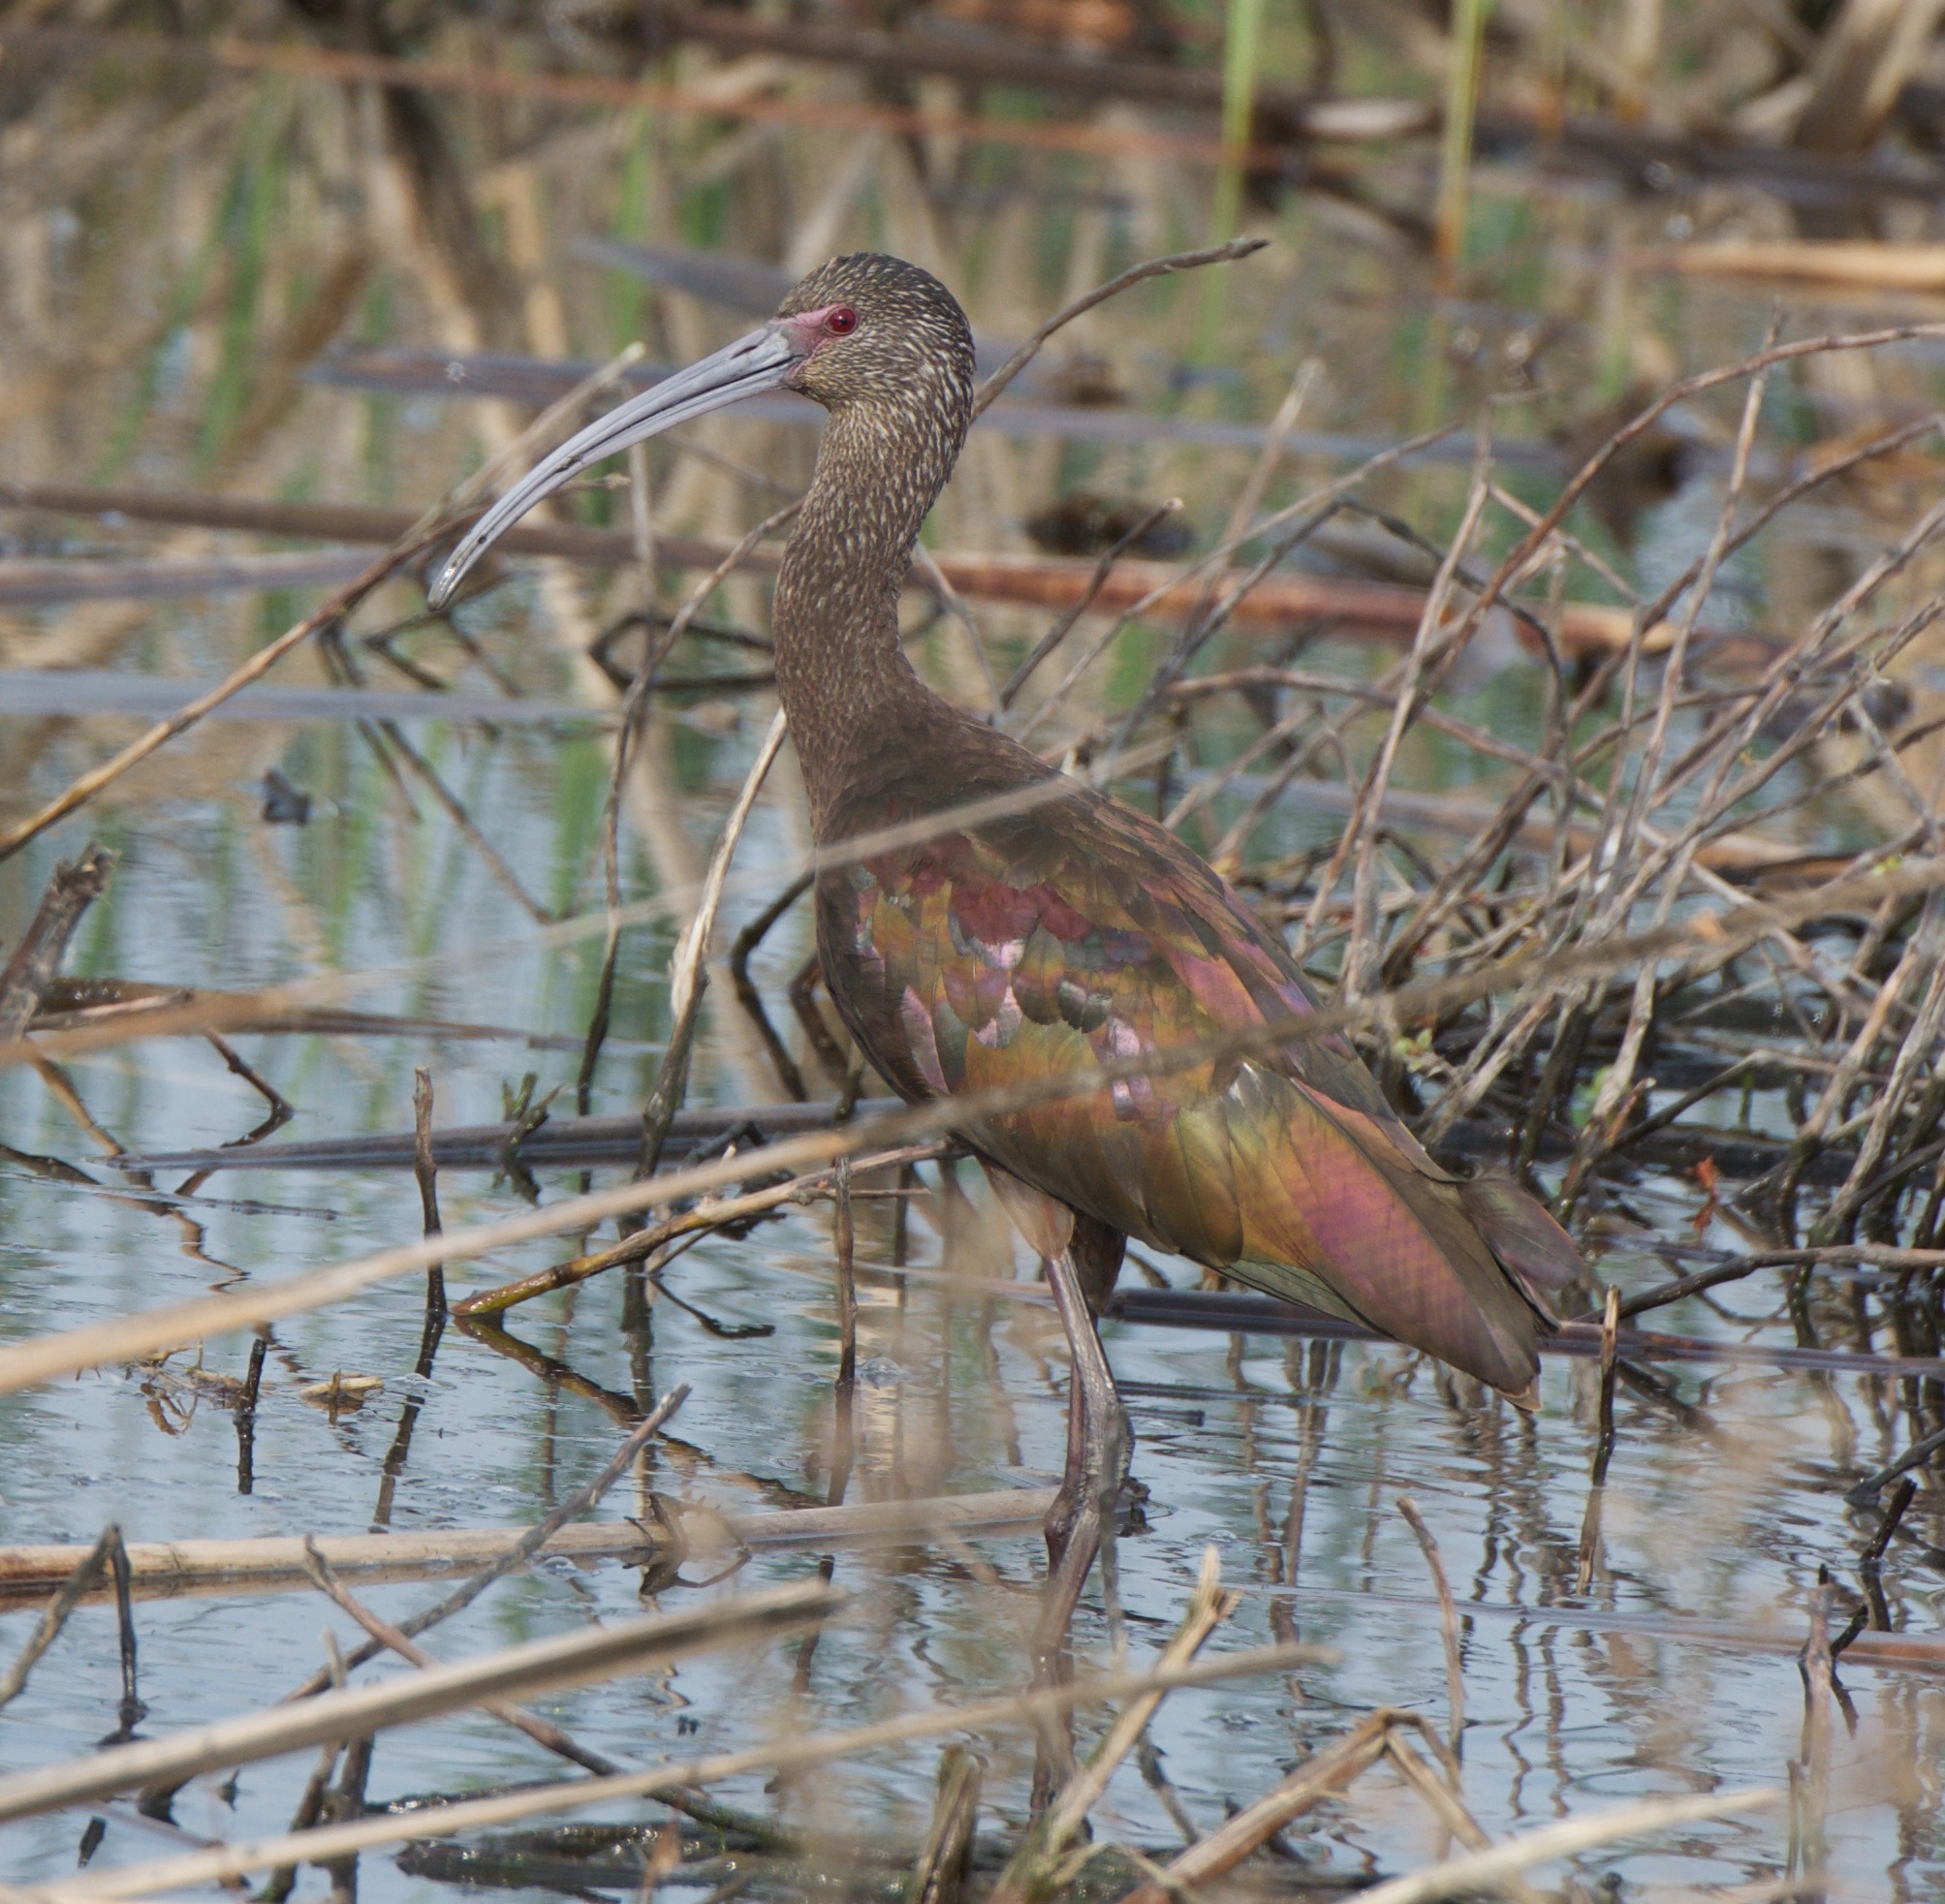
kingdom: Animalia
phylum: Chordata
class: Aves
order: Pelecaniformes
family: Threskiornithidae
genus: Plegadis
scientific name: Plegadis chihi
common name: White-faced ibis
